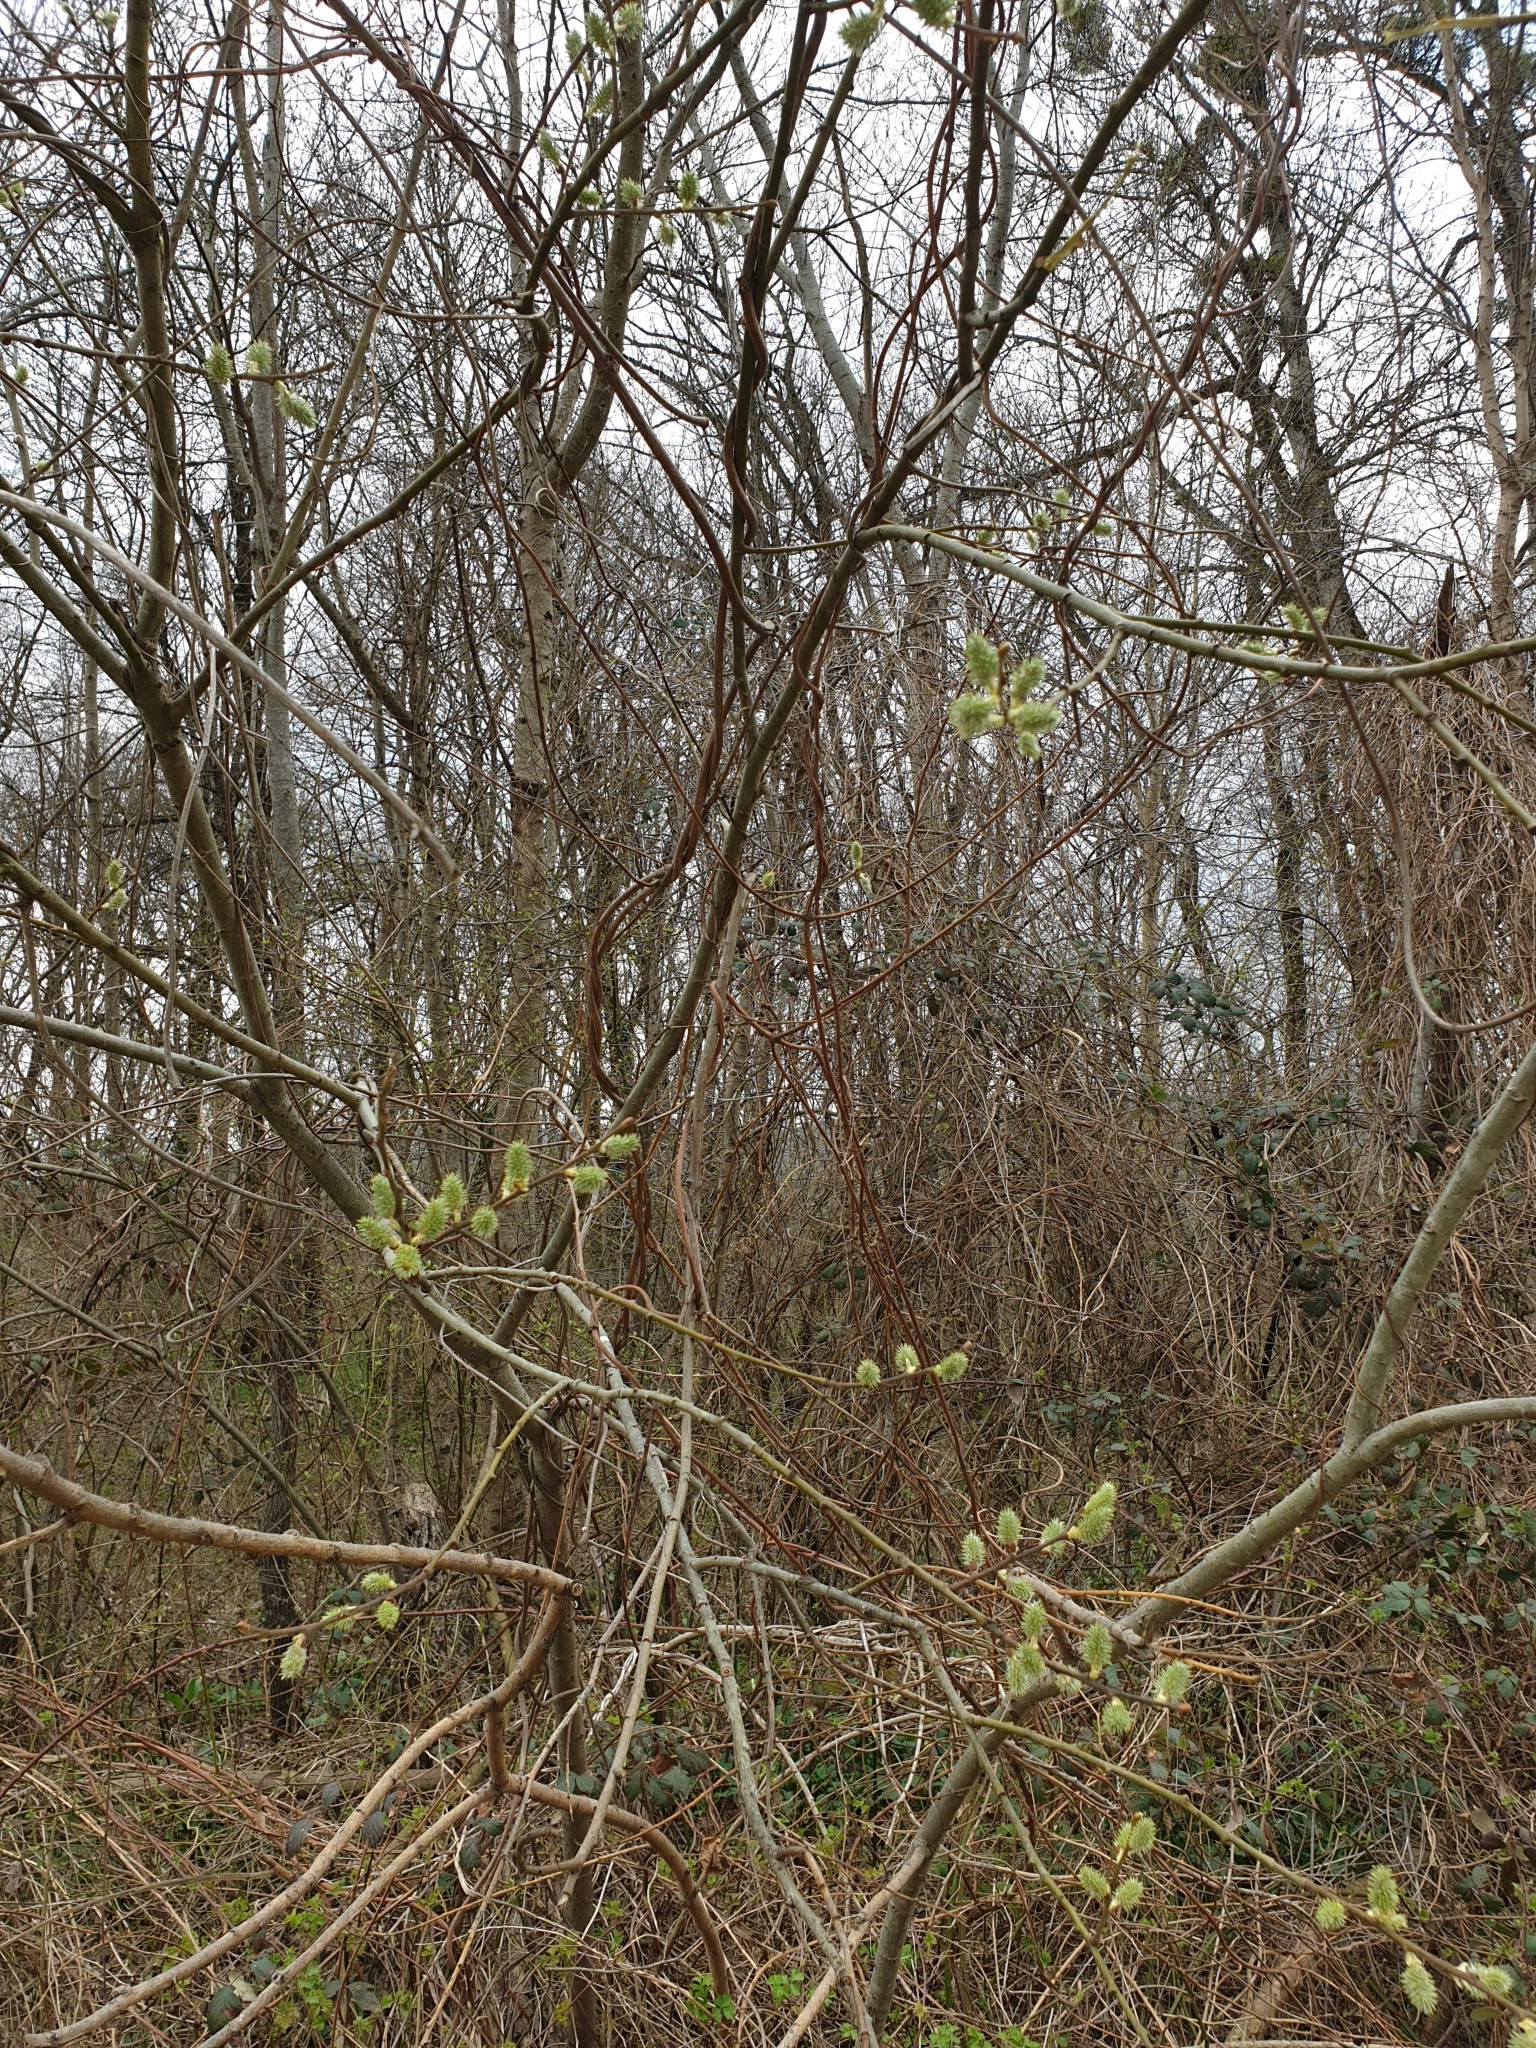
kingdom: Plantae
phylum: Tracheophyta
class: Magnoliopsida
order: Malpighiales
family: Salicaceae
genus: Salix
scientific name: Salix caprea
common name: Goat willow
